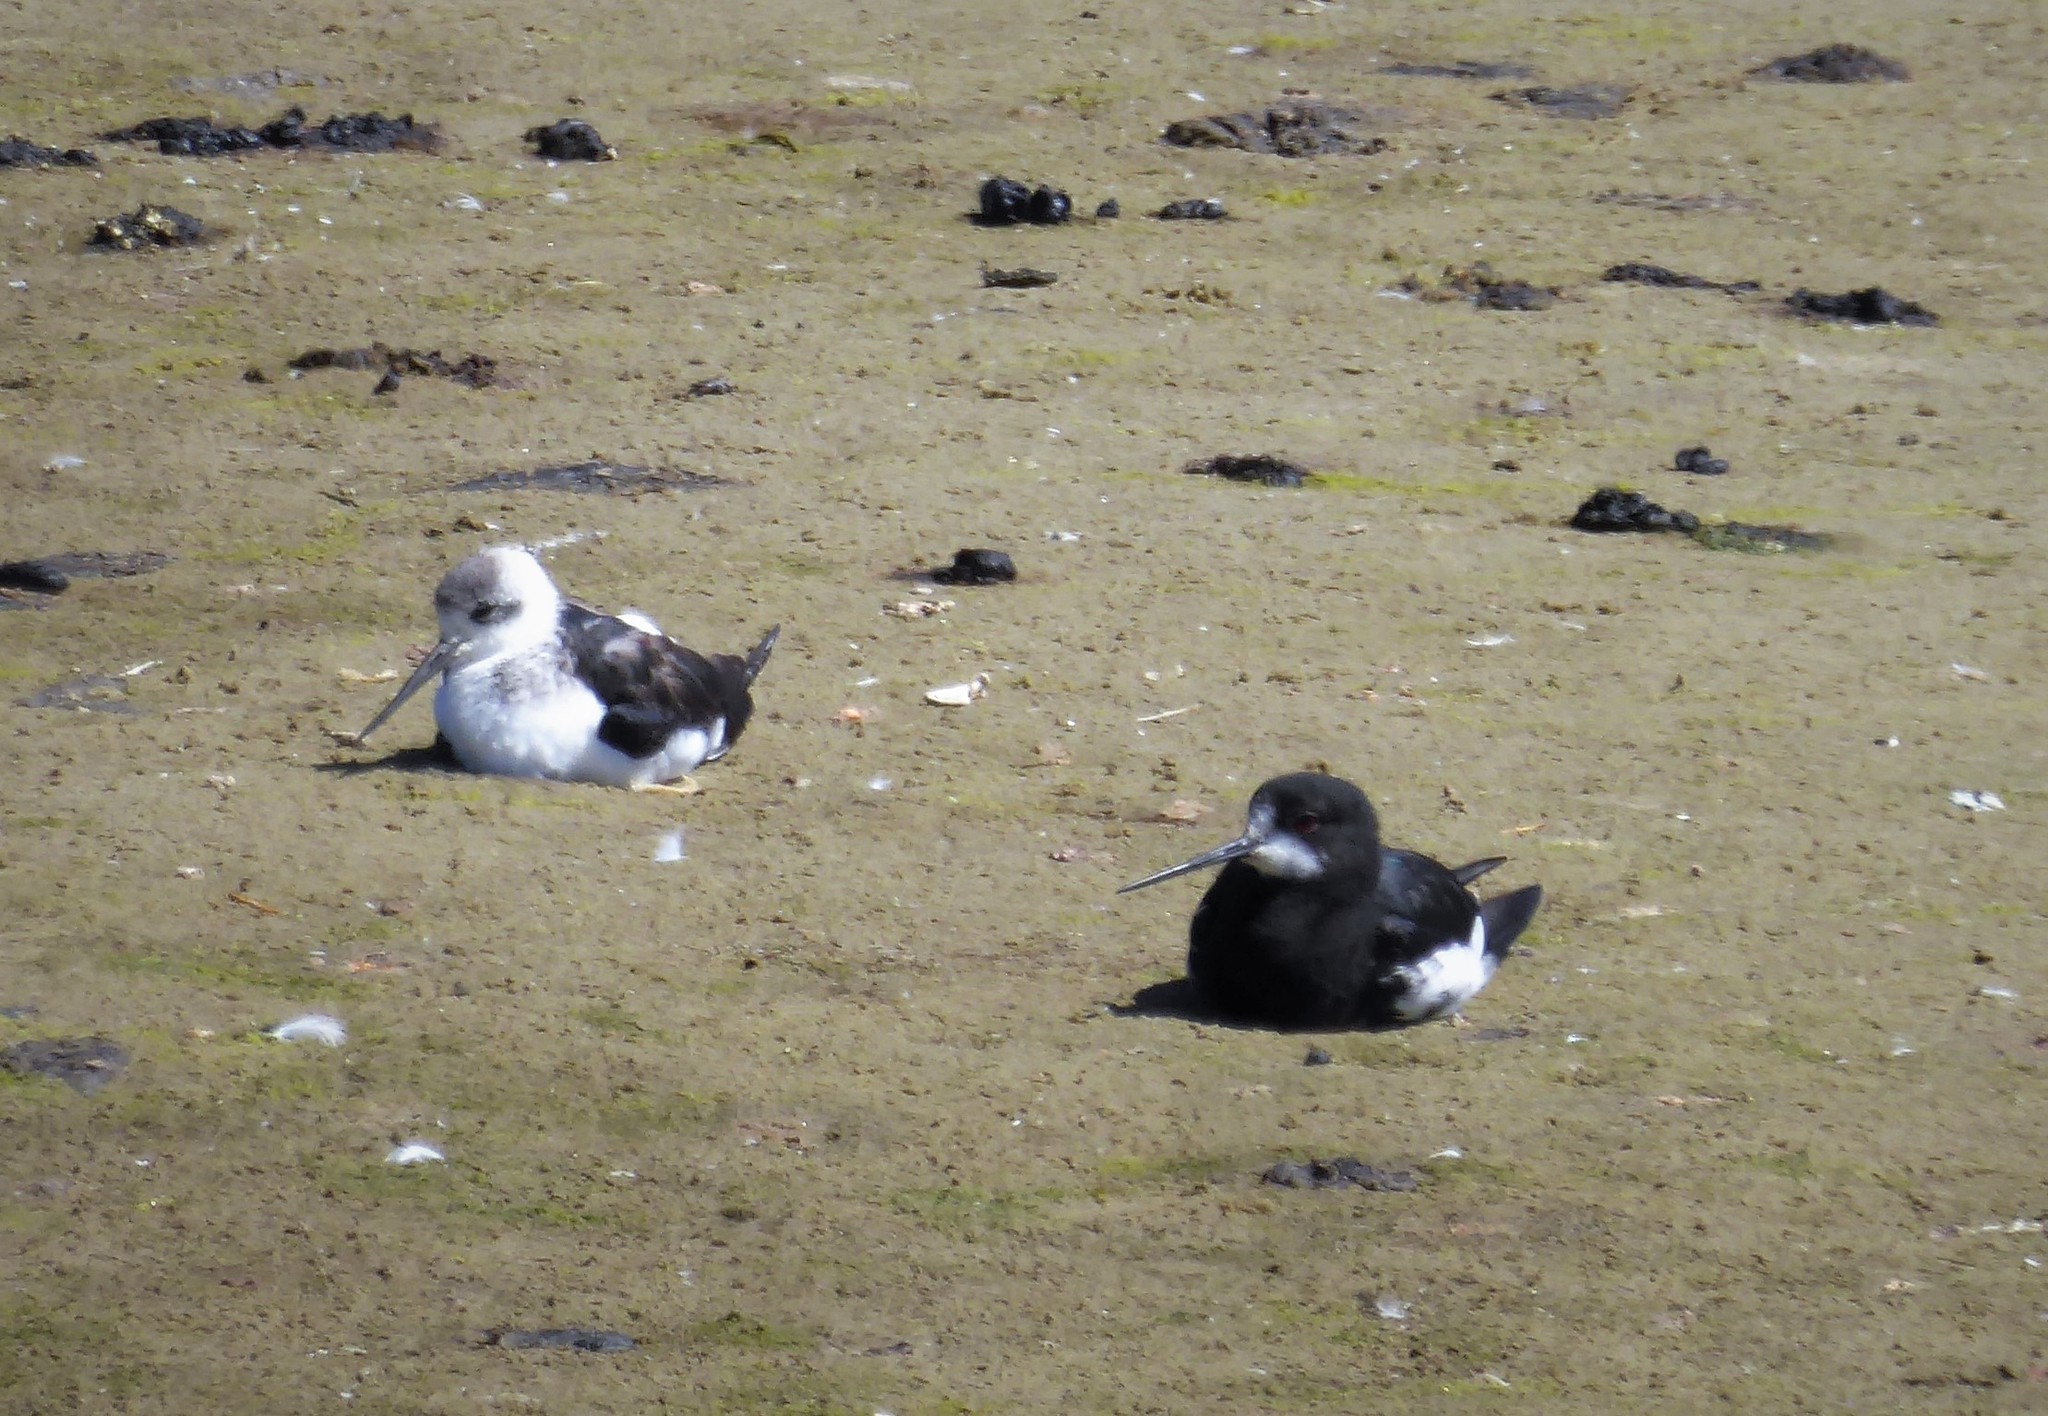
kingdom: Animalia
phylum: Chordata
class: Aves
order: Charadriiformes
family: Recurvirostridae
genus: Himantopus
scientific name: Himantopus
